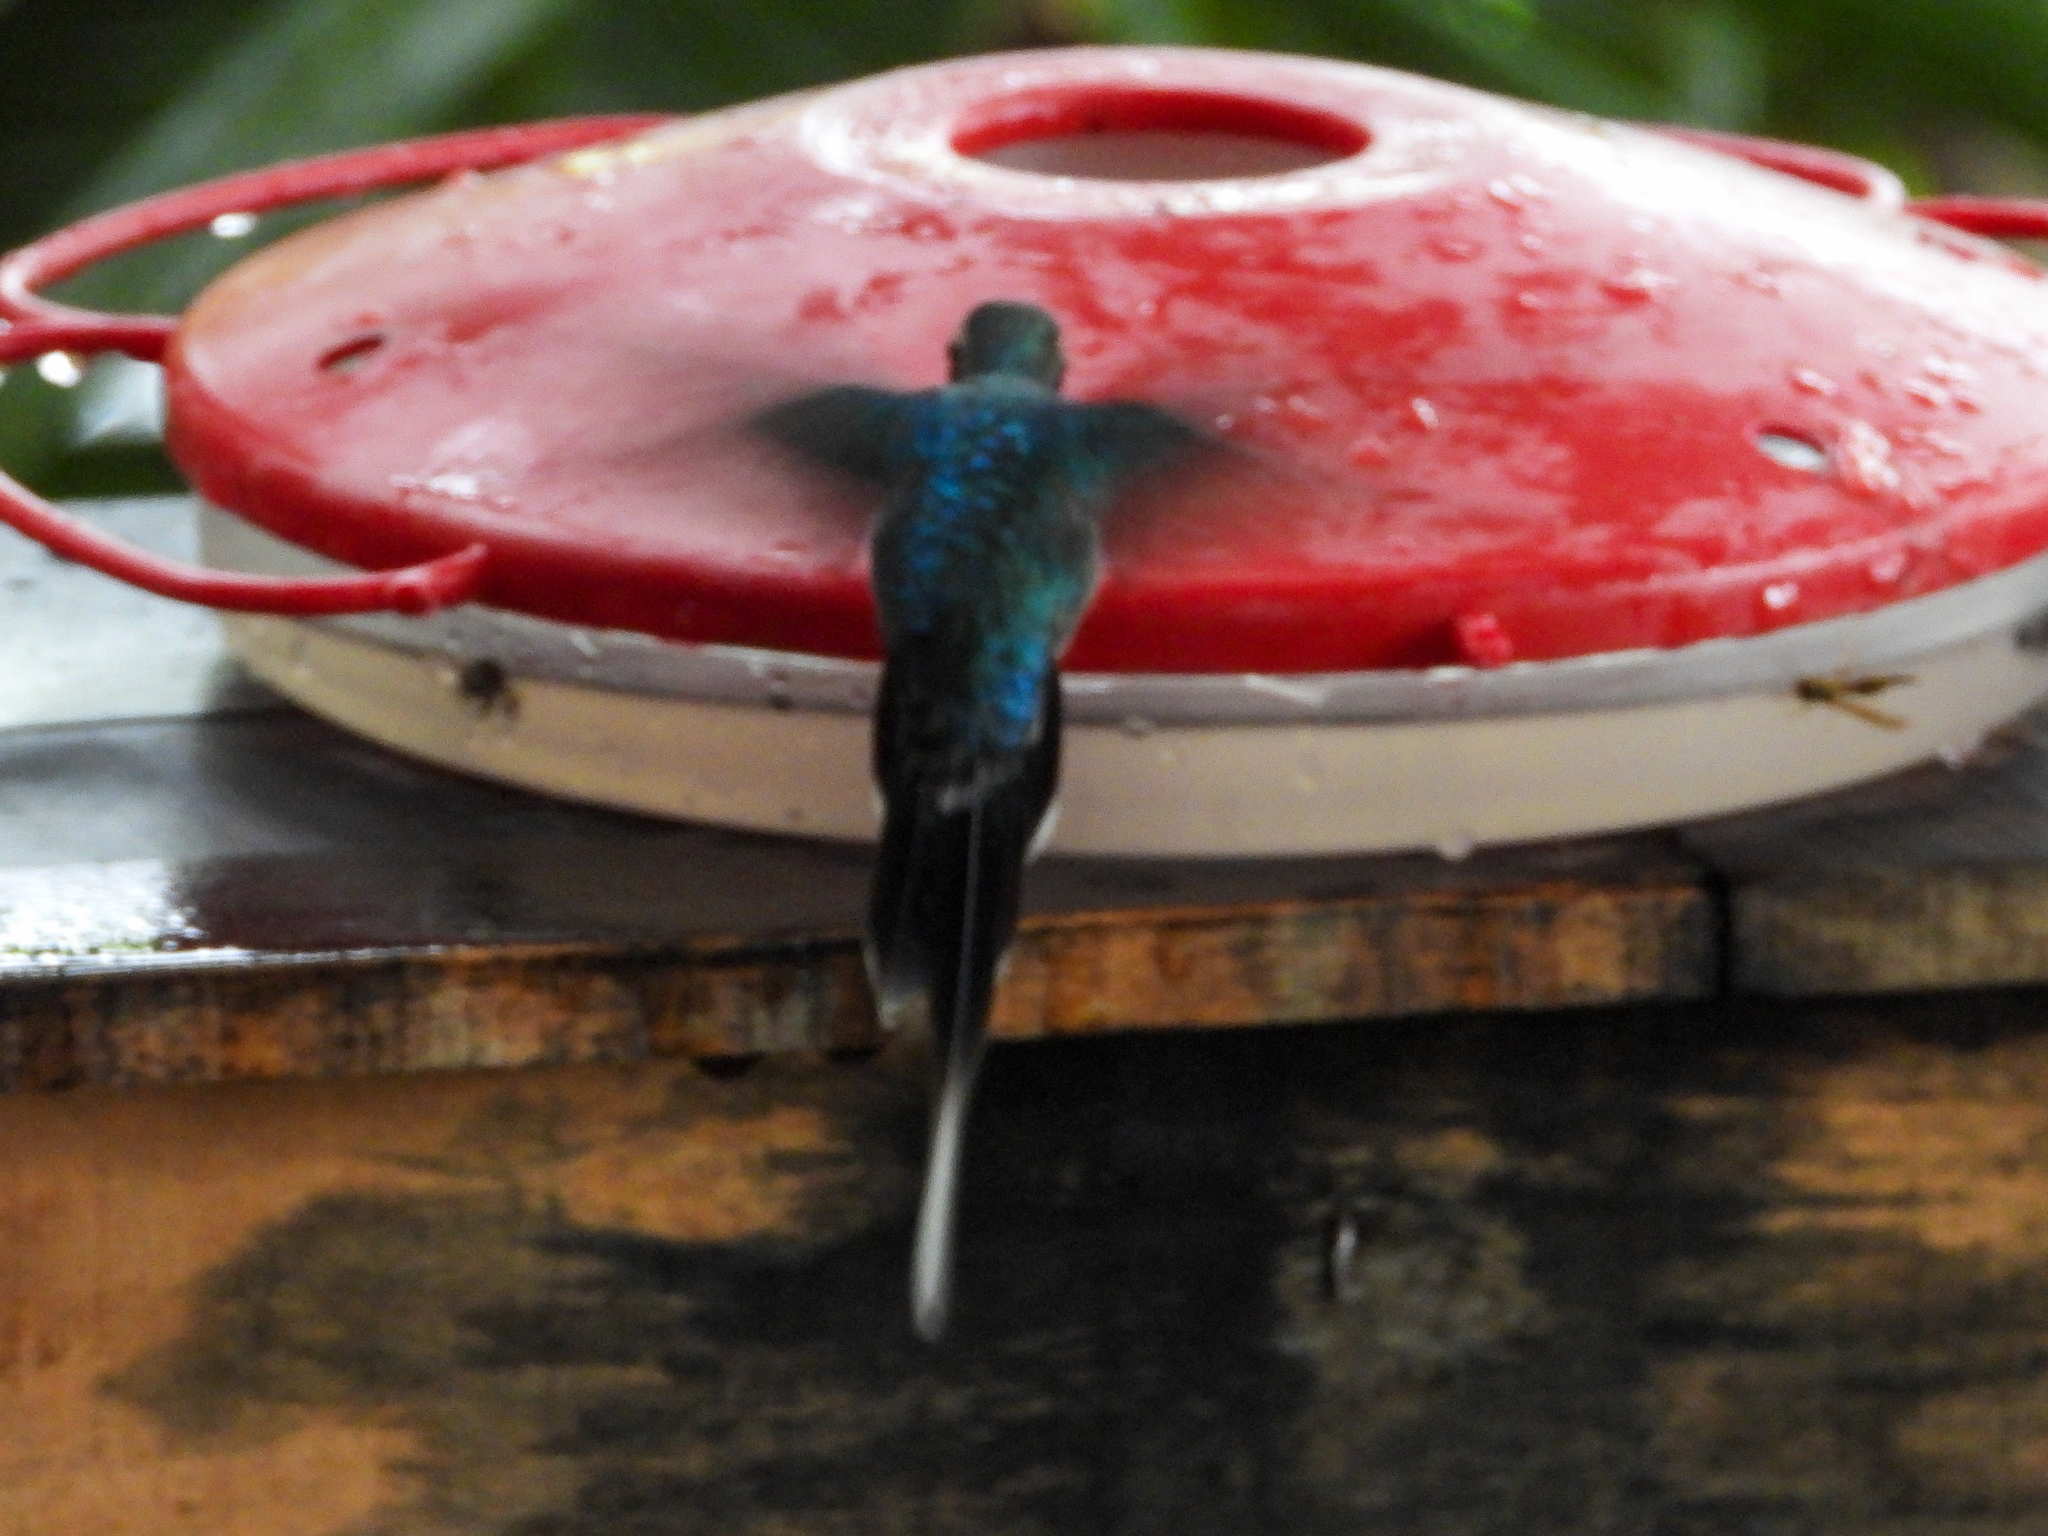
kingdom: Animalia
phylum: Chordata
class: Aves
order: Apodiformes
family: Trochilidae
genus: Phaethornis
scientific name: Phaethornis guy
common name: Green hermit
